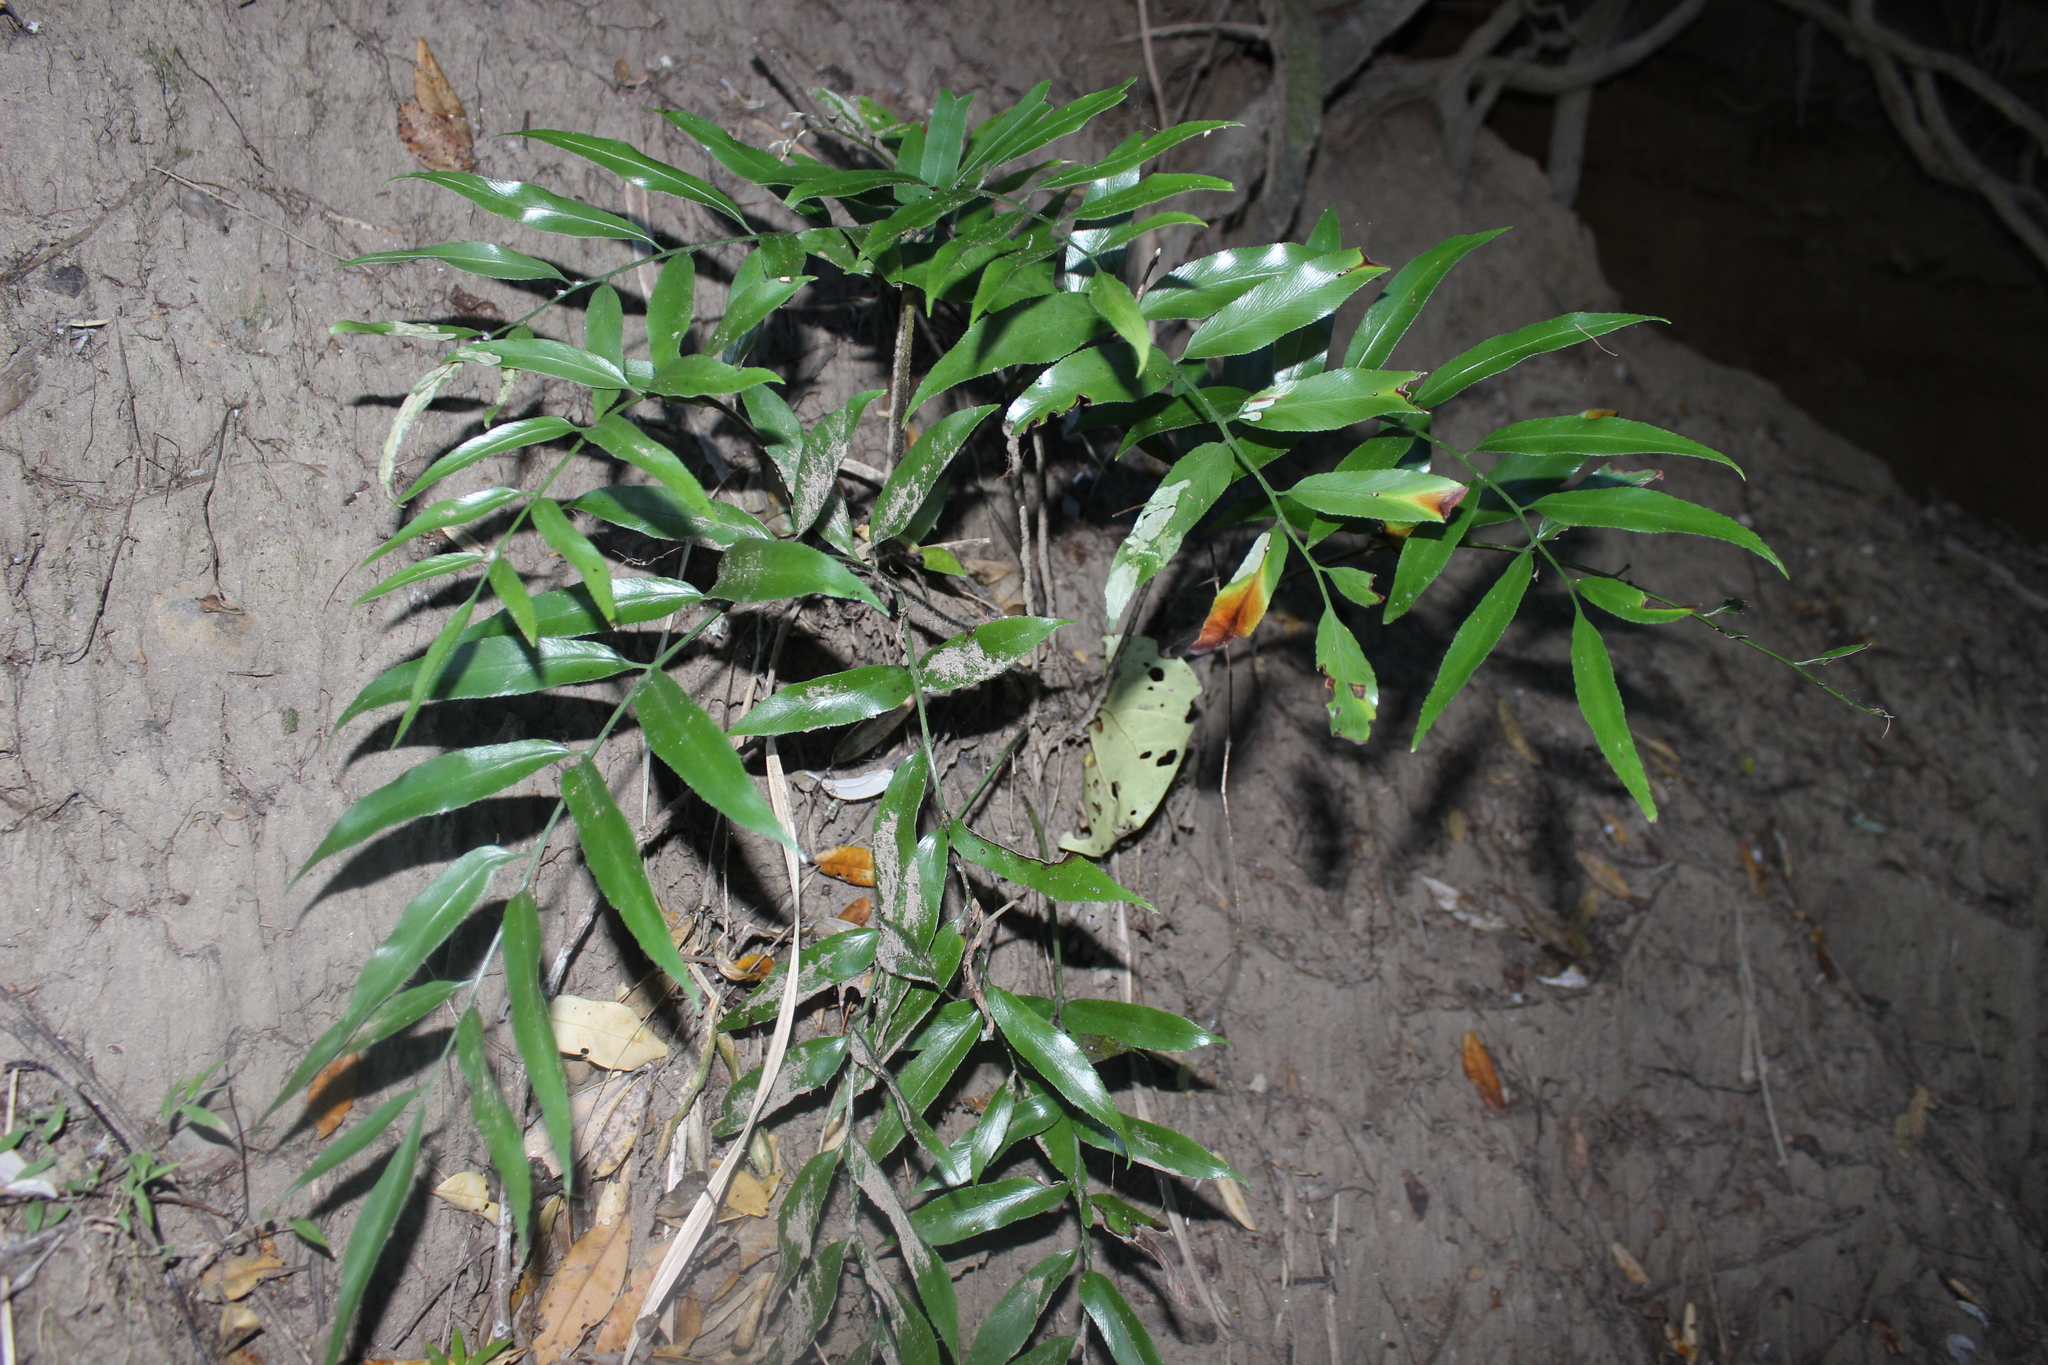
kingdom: Plantae
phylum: Tracheophyta
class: Polypodiopsida
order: Polypodiales
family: Aspleniaceae
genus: Asplenium
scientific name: Asplenium oblongifolium
